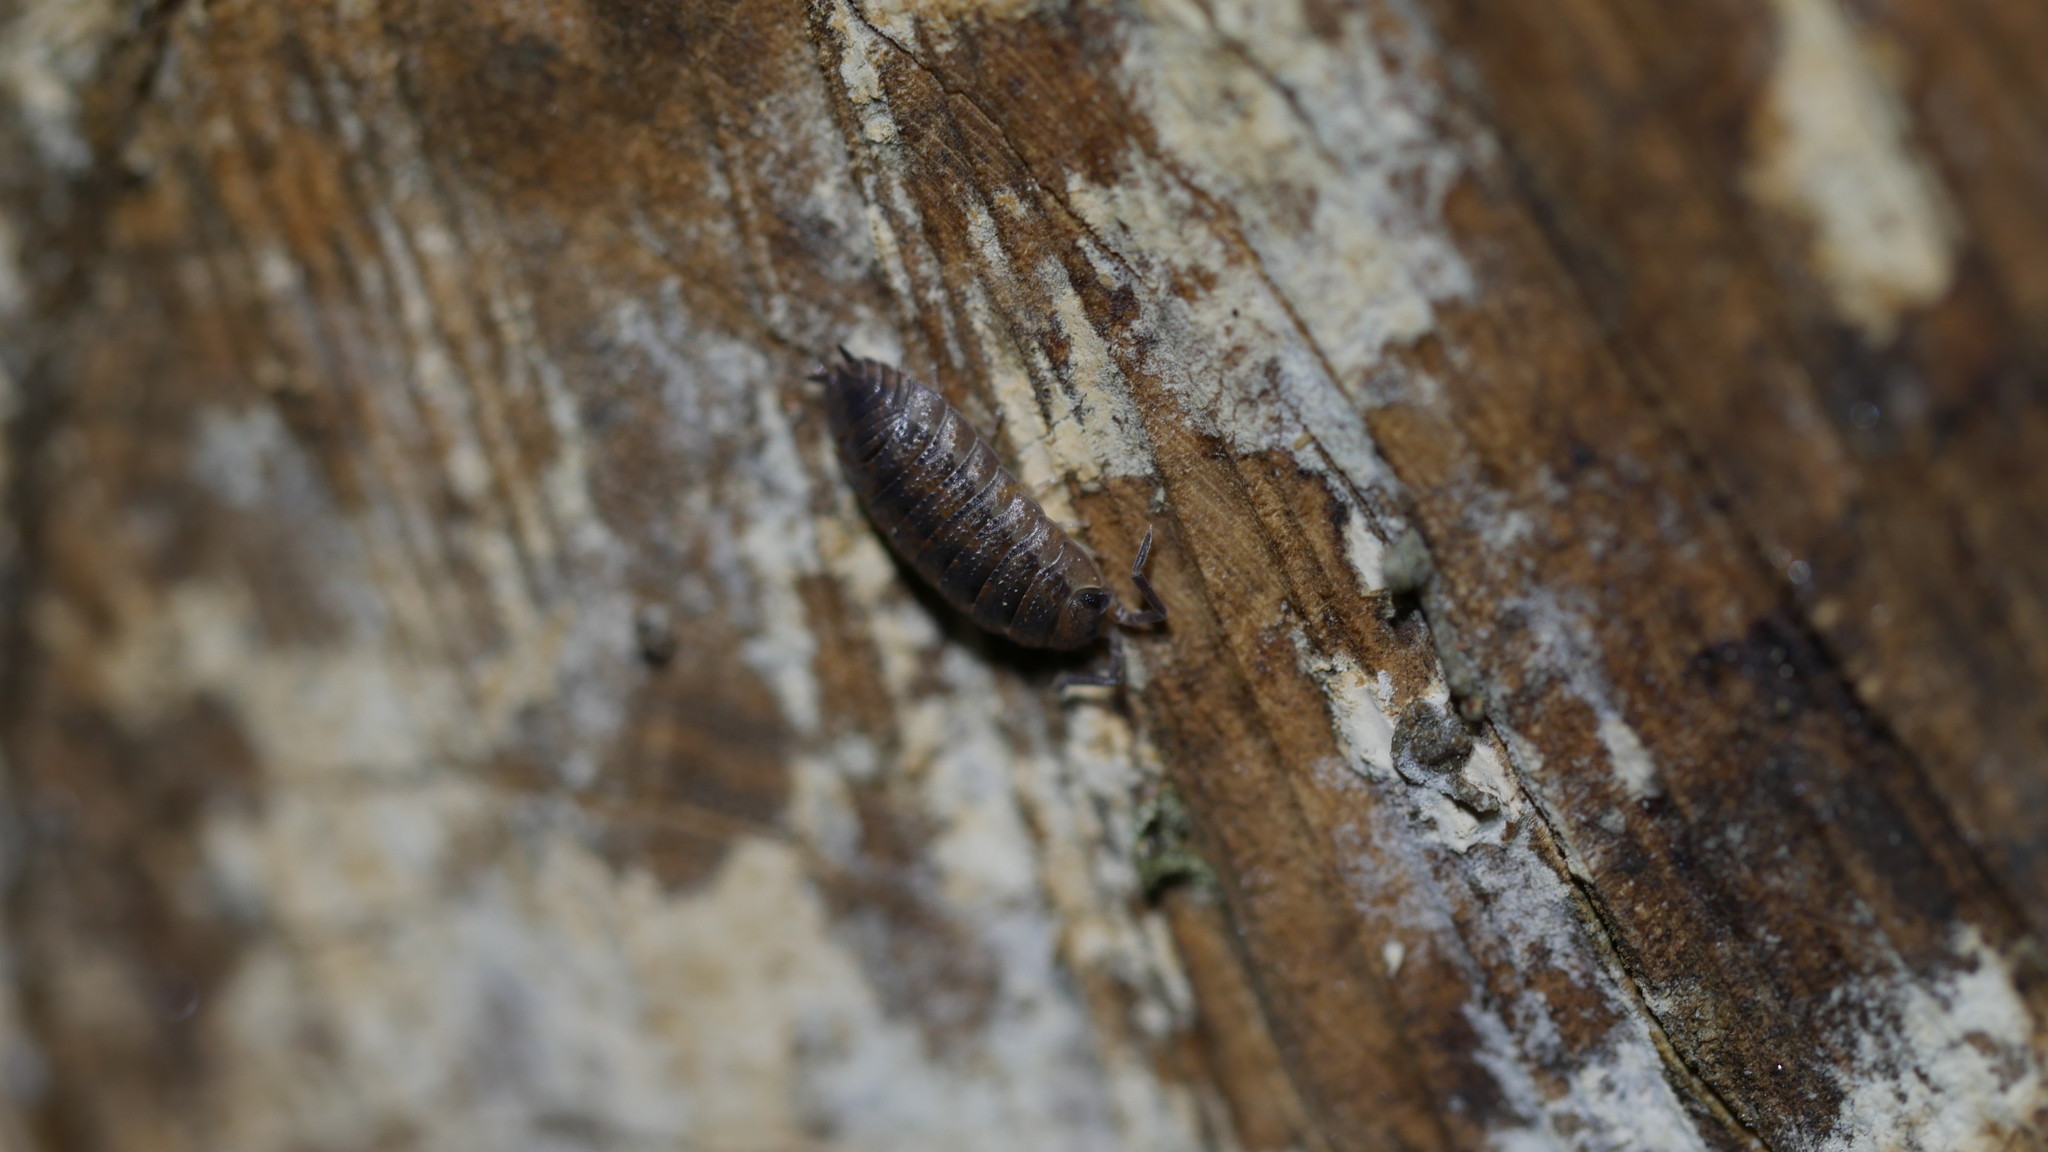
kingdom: Animalia
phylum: Arthropoda
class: Malacostraca
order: Isopoda
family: Porcellionidae
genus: Porcellio
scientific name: Porcellio scaber
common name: Common rough woodlouse
